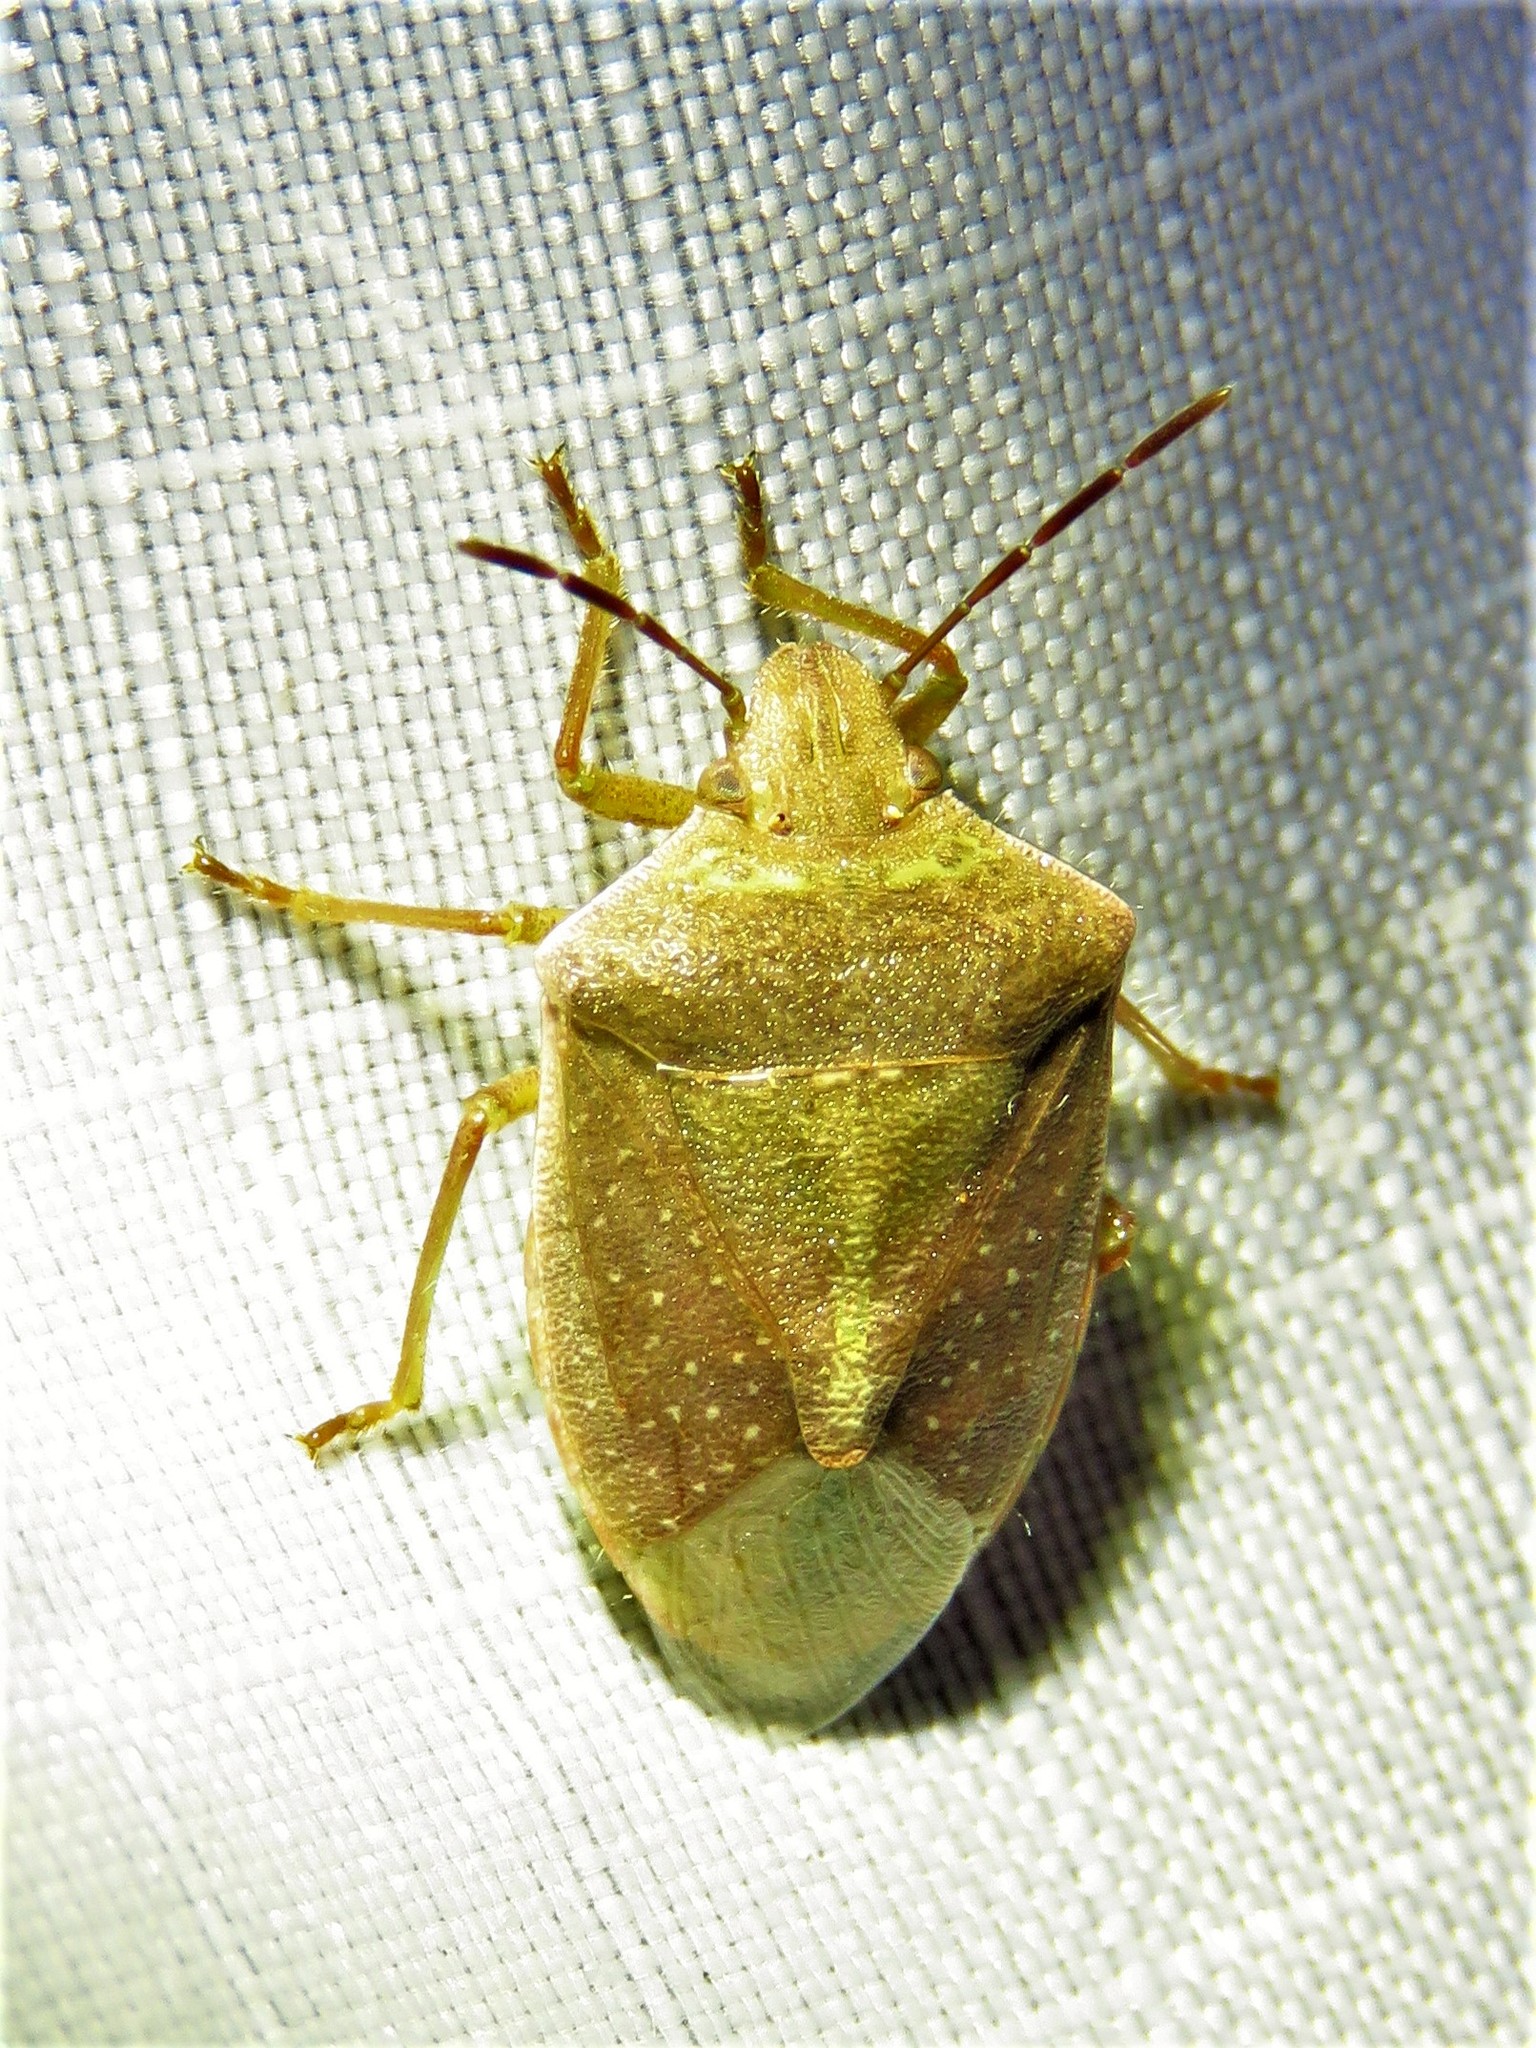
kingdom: Animalia
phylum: Arthropoda
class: Insecta
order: Hemiptera
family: Pentatomidae
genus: Thyanta
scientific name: Thyanta accerra
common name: Stink bug
